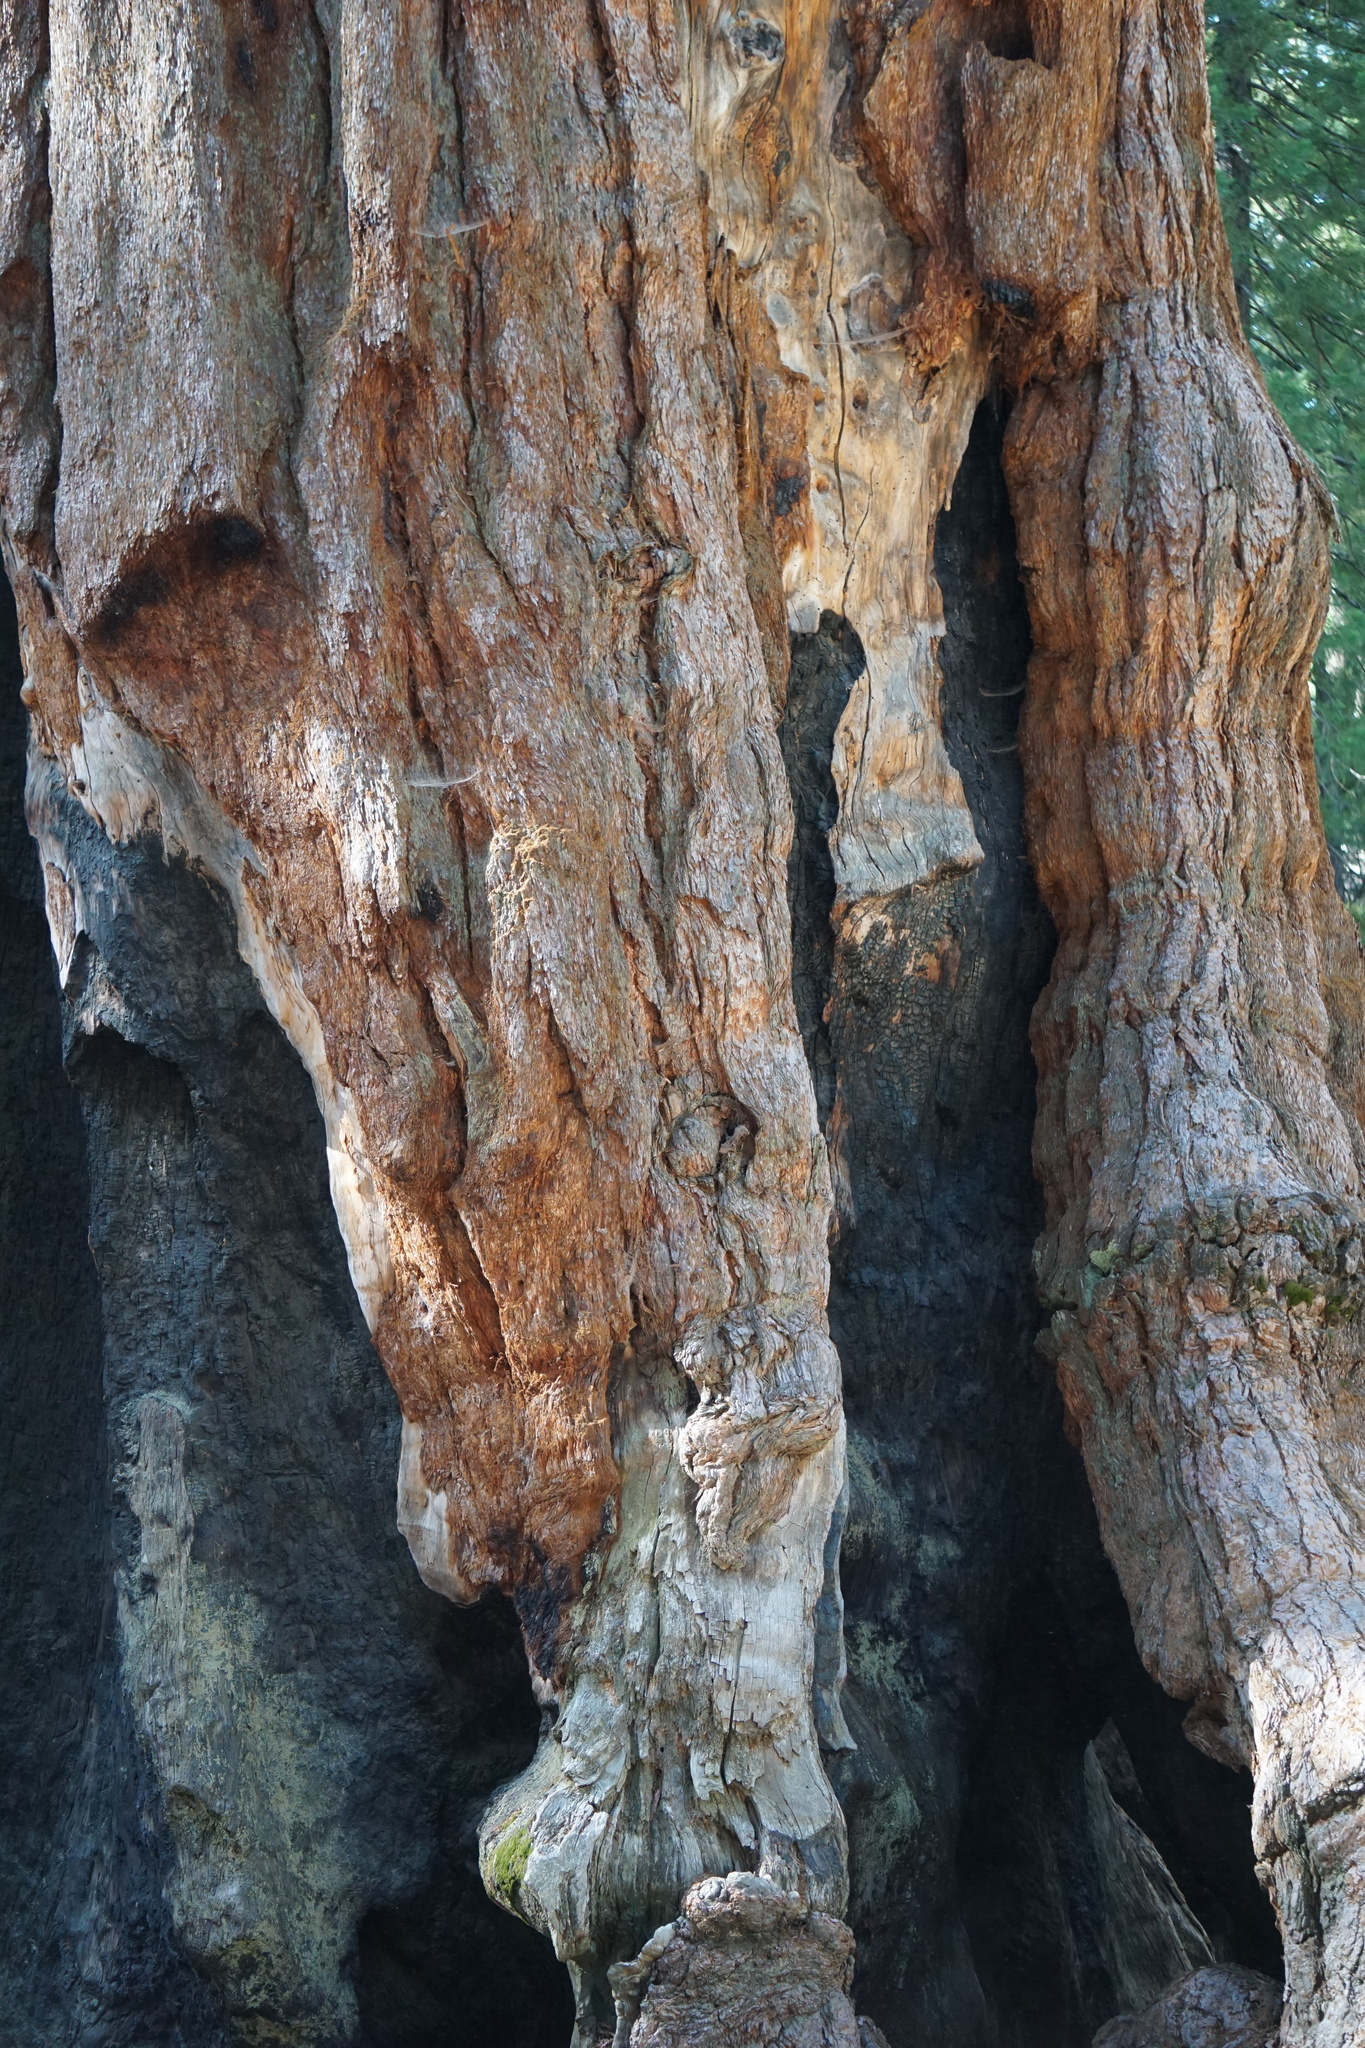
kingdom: Plantae
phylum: Tracheophyta
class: Pinopsida
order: Pinales
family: Cupressaceae
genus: Sequoiadendron
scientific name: Sequoiadendron giganteum
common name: Wellingtonia
